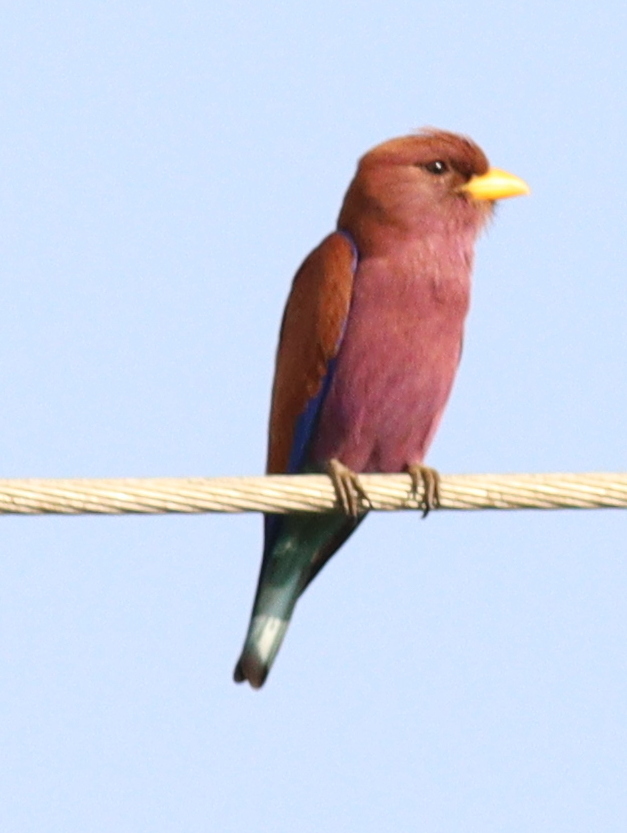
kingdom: Animalia
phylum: Chordata
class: Aves
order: Coraciiformes
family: Coraciidae
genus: Eurystomus
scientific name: Eurystomus glaucurus
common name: Broad-billed roller
